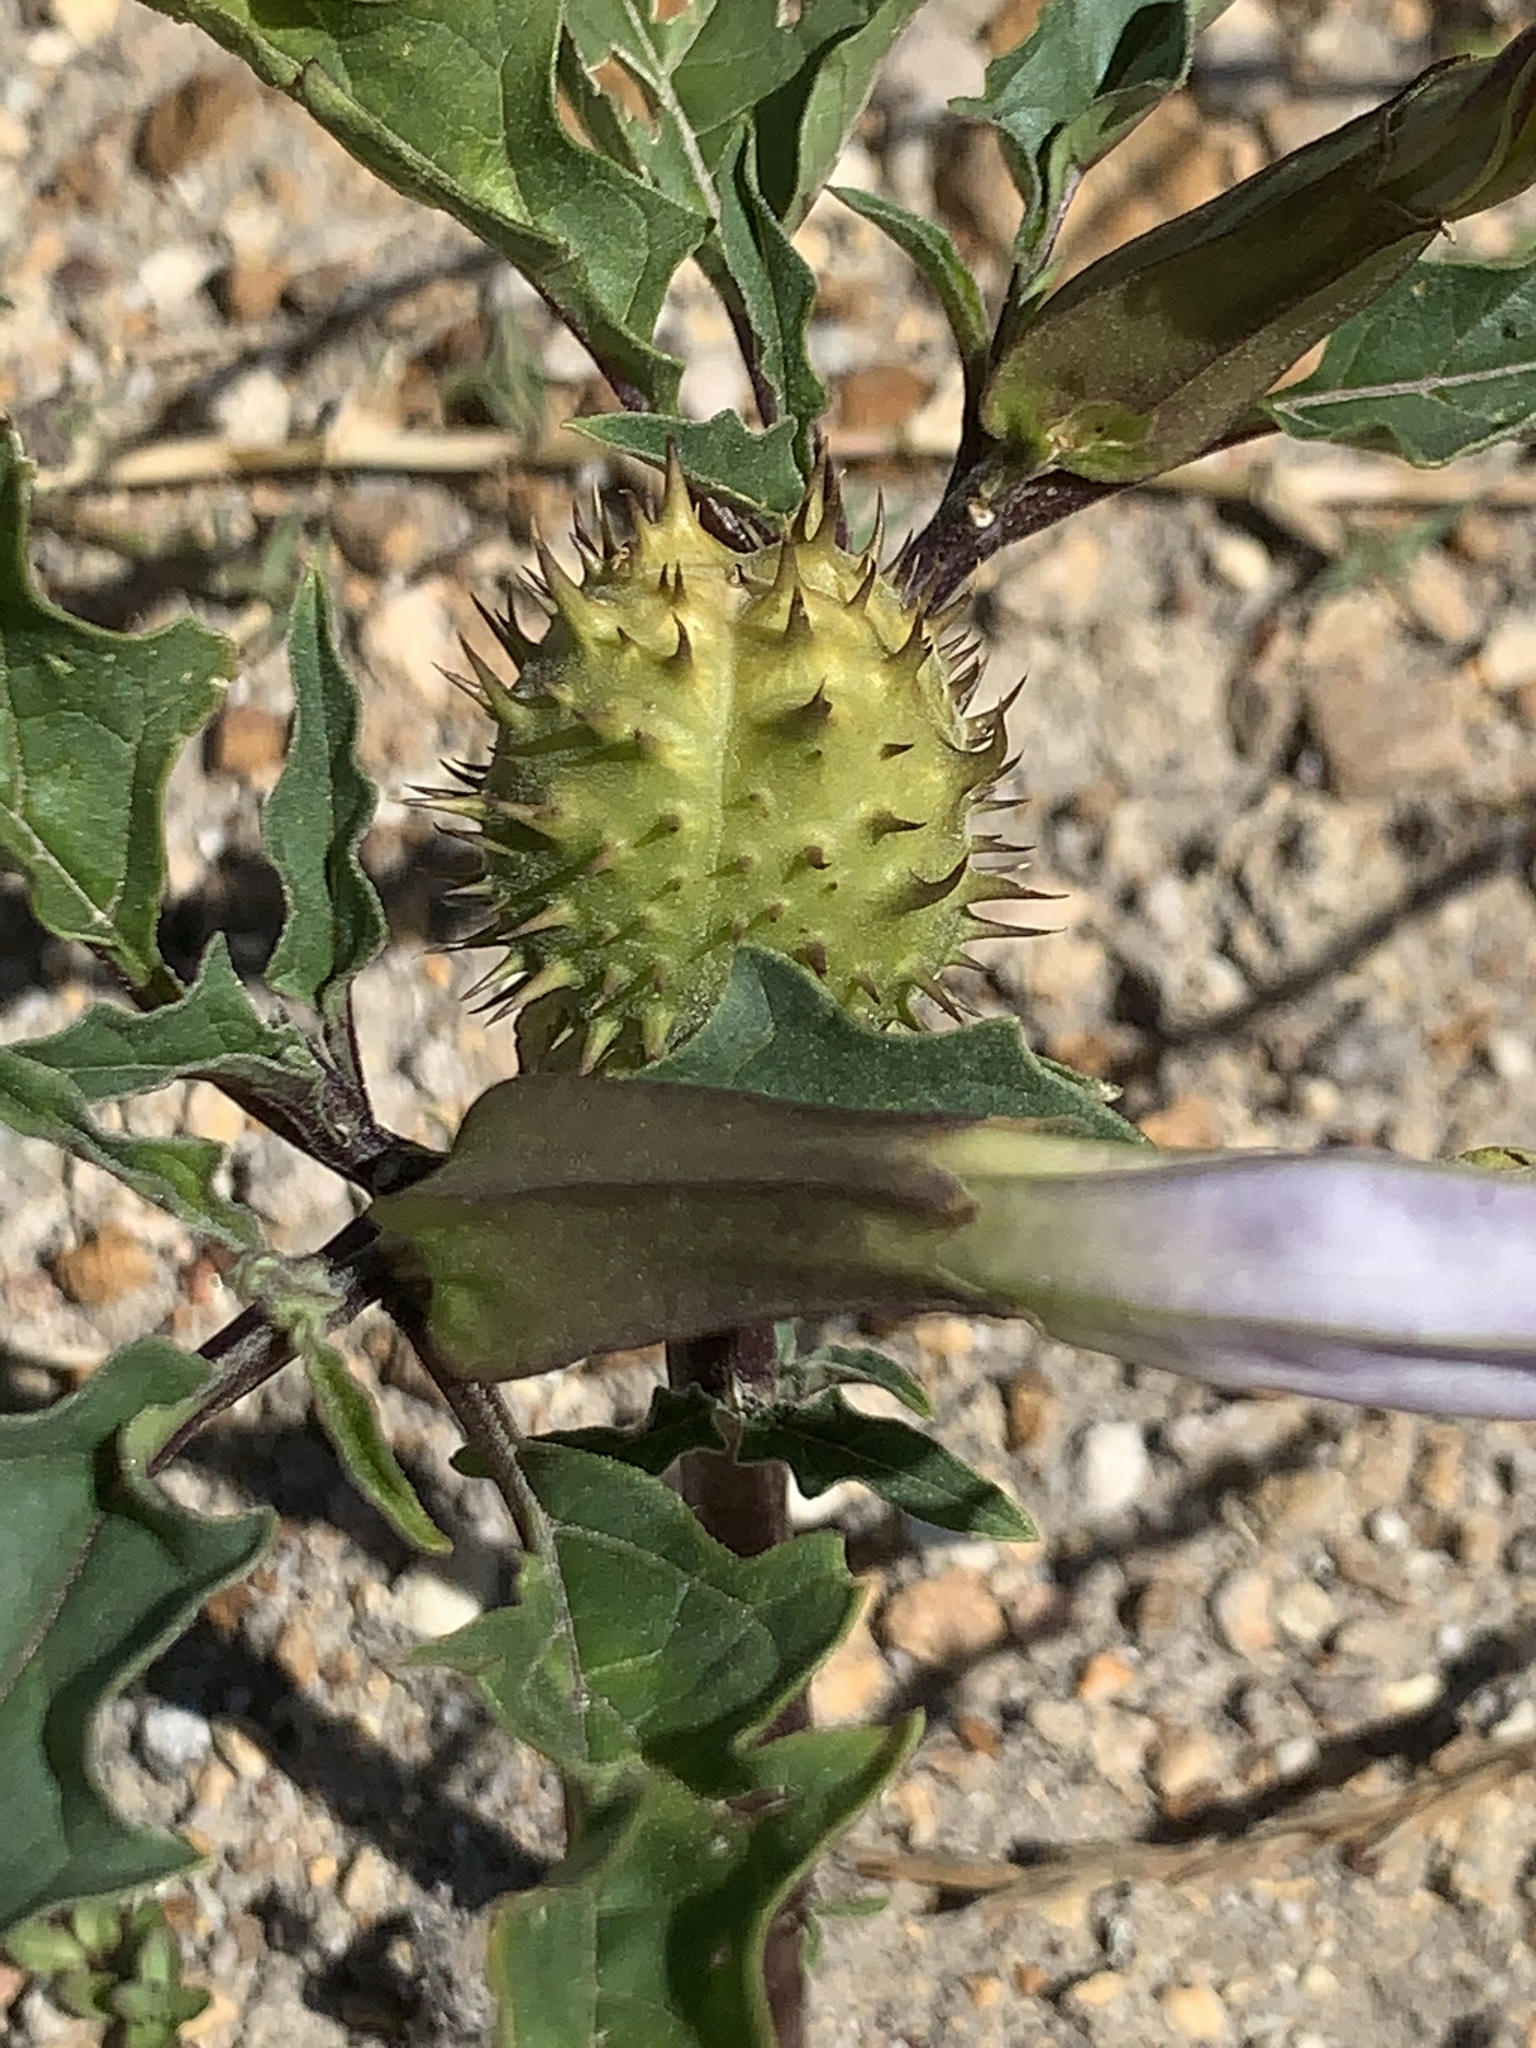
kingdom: Plantae
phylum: Tracheophyta
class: Magnoliopsida
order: Solanales
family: Solanaceae
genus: Datura
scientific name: Datura stramonium
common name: Thorn-apple
